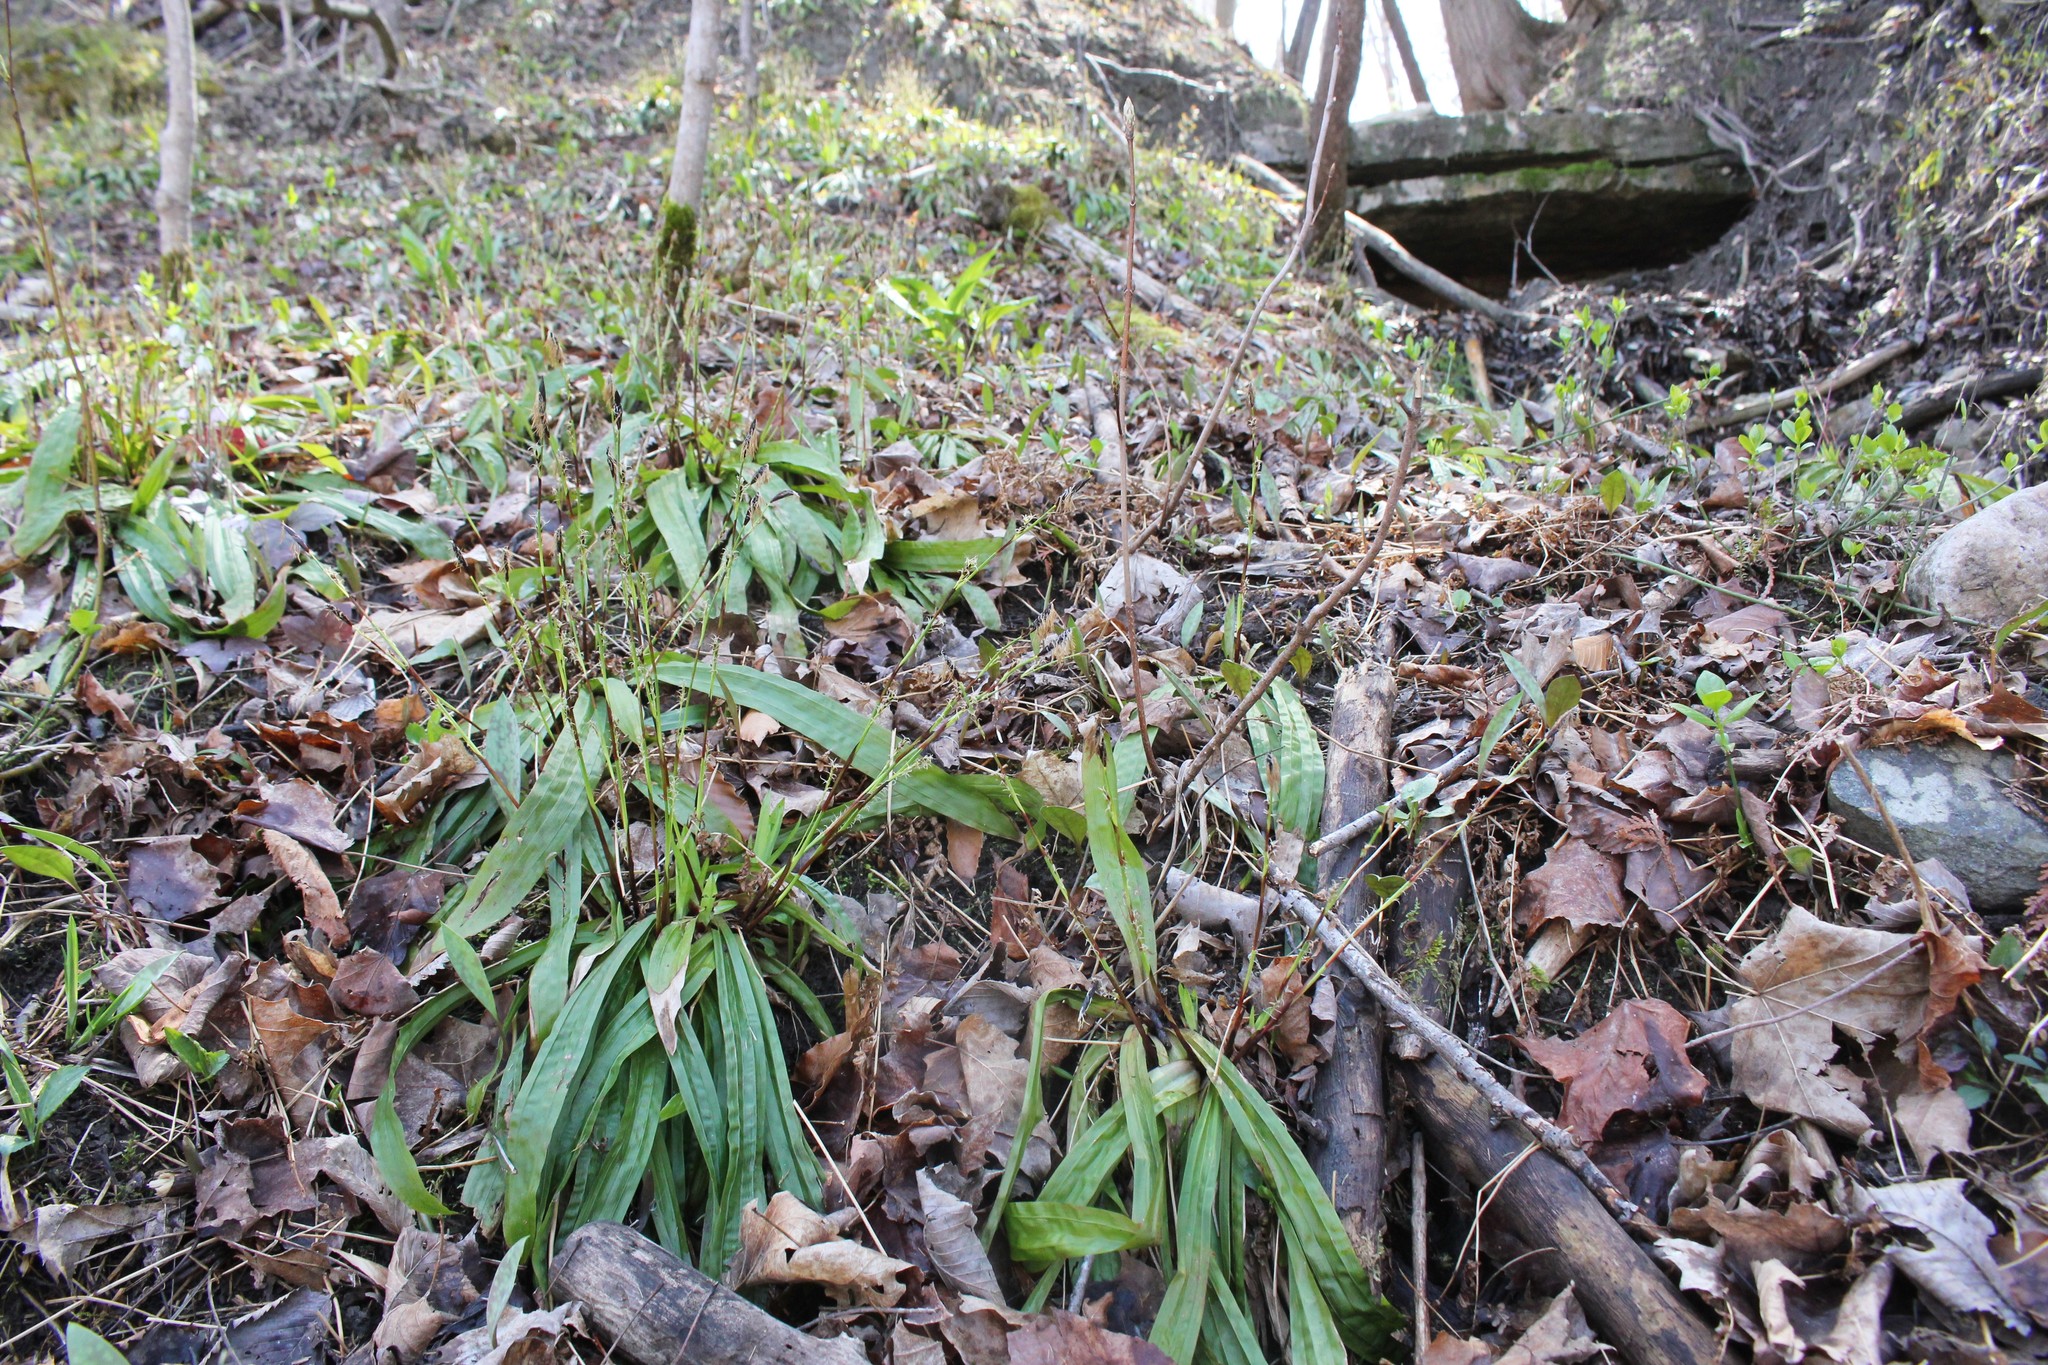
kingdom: Plantae
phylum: Tracheophyta
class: Liliopsida
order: Poales
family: Cyperaceae
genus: Carex
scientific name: Carex plantaginea
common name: Plantain-leaved sedge
